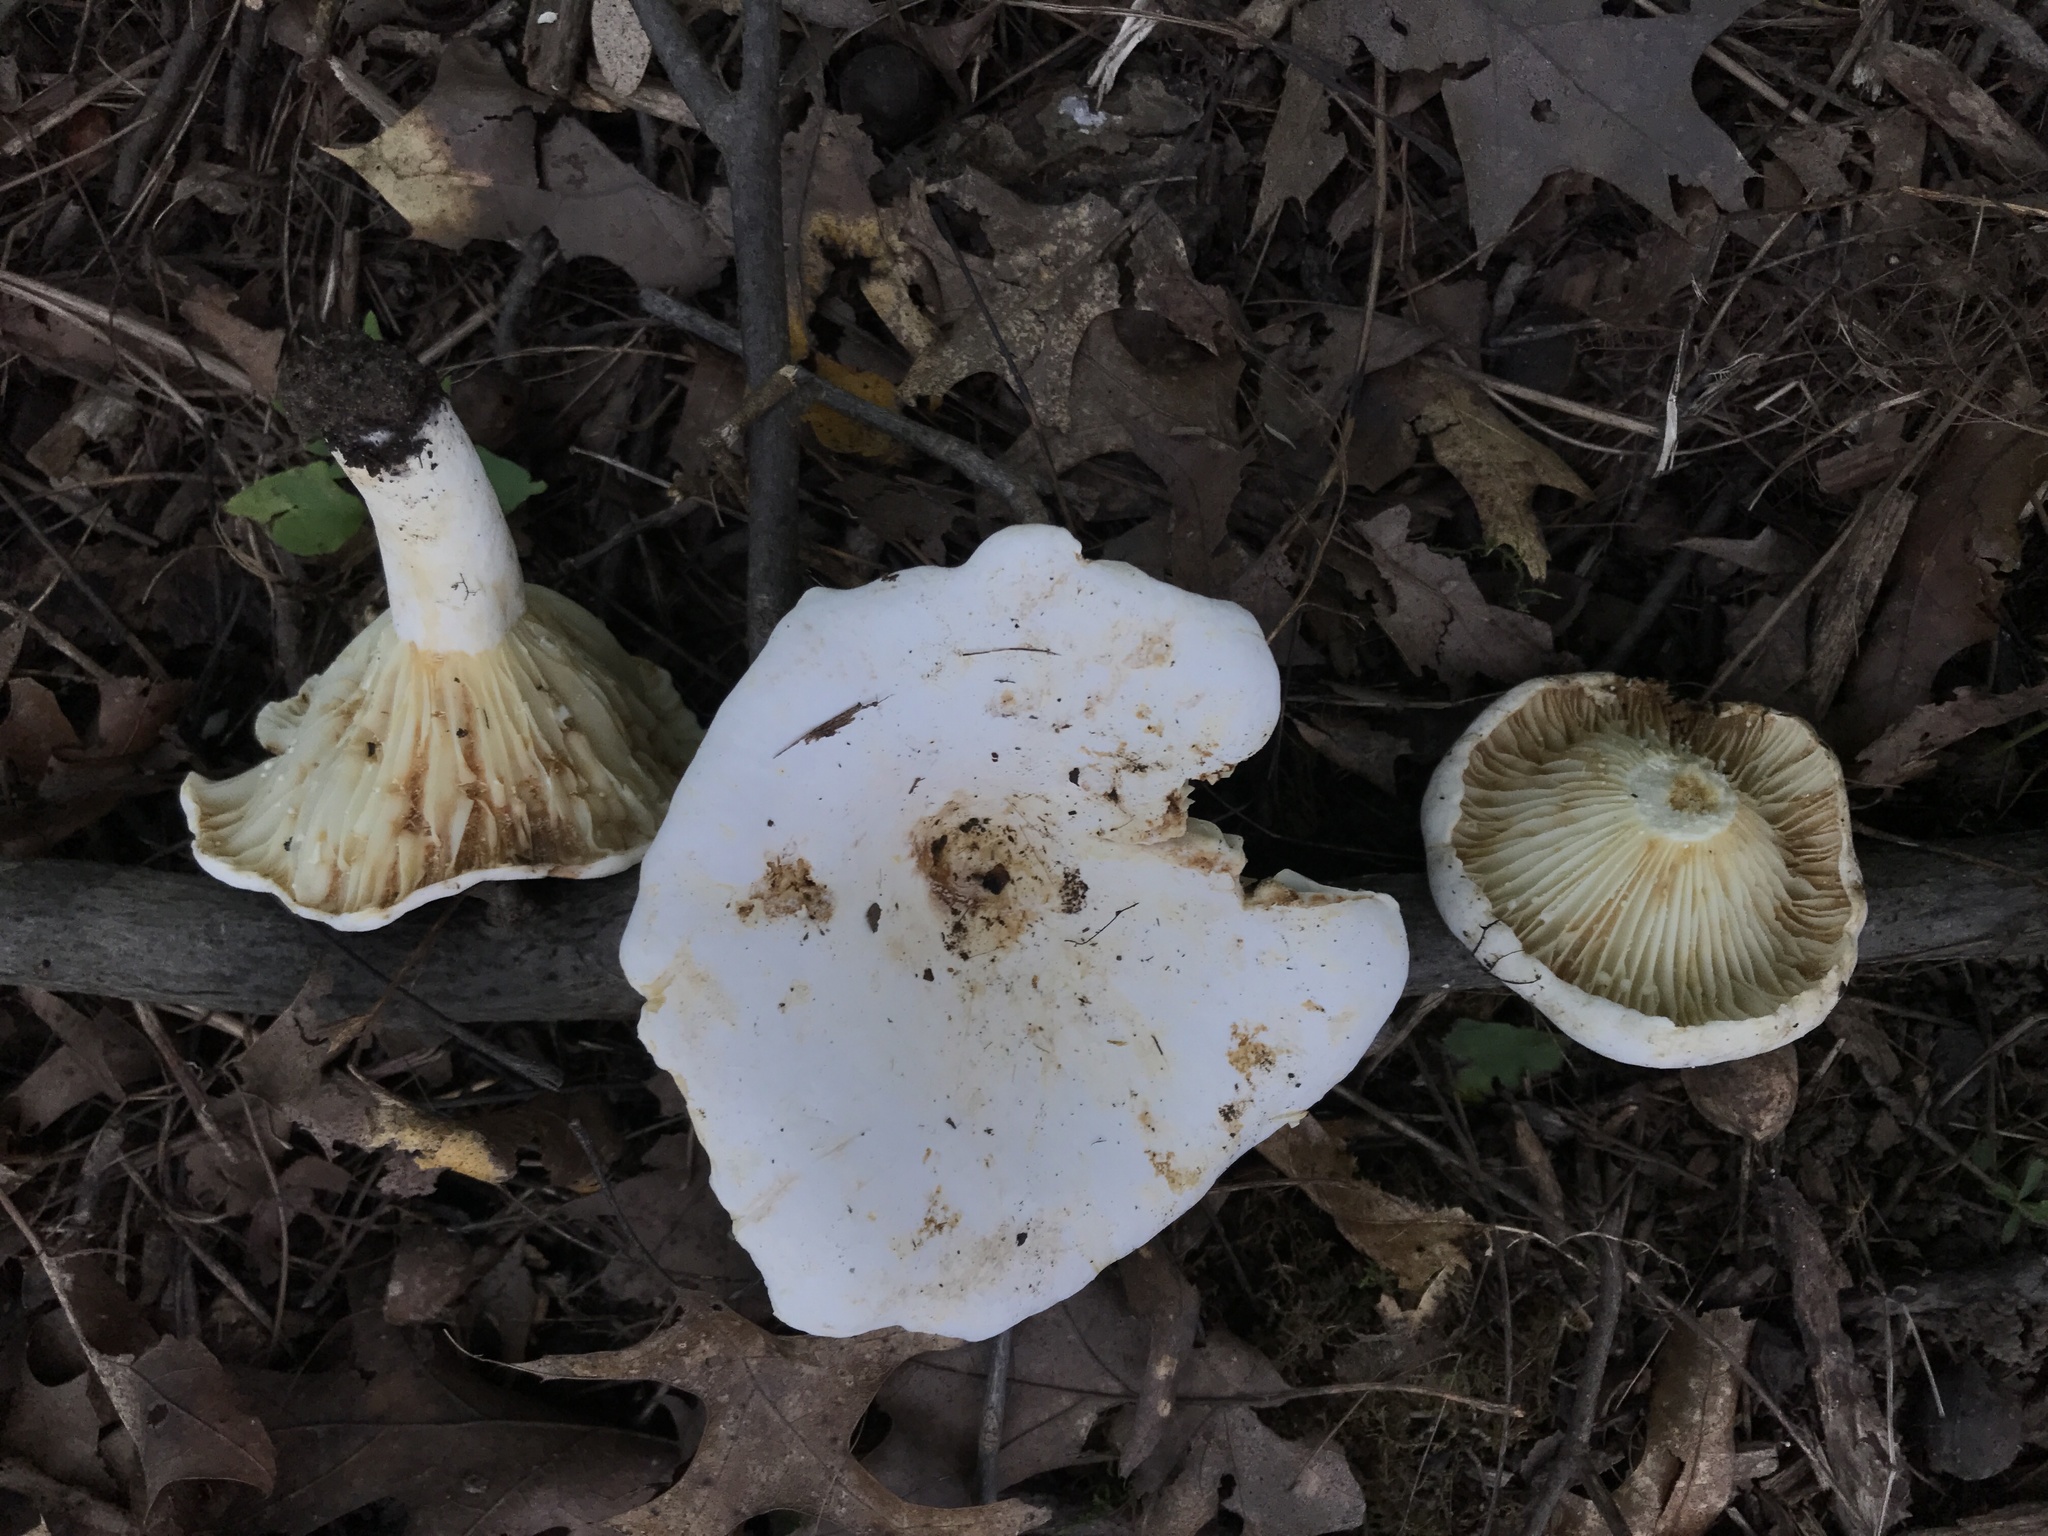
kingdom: Fungi
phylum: Basidiomycota
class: Agaricomycetes
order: Russulales
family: Russulaceae
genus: Lactifluus
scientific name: Lactifluus subvellereus
